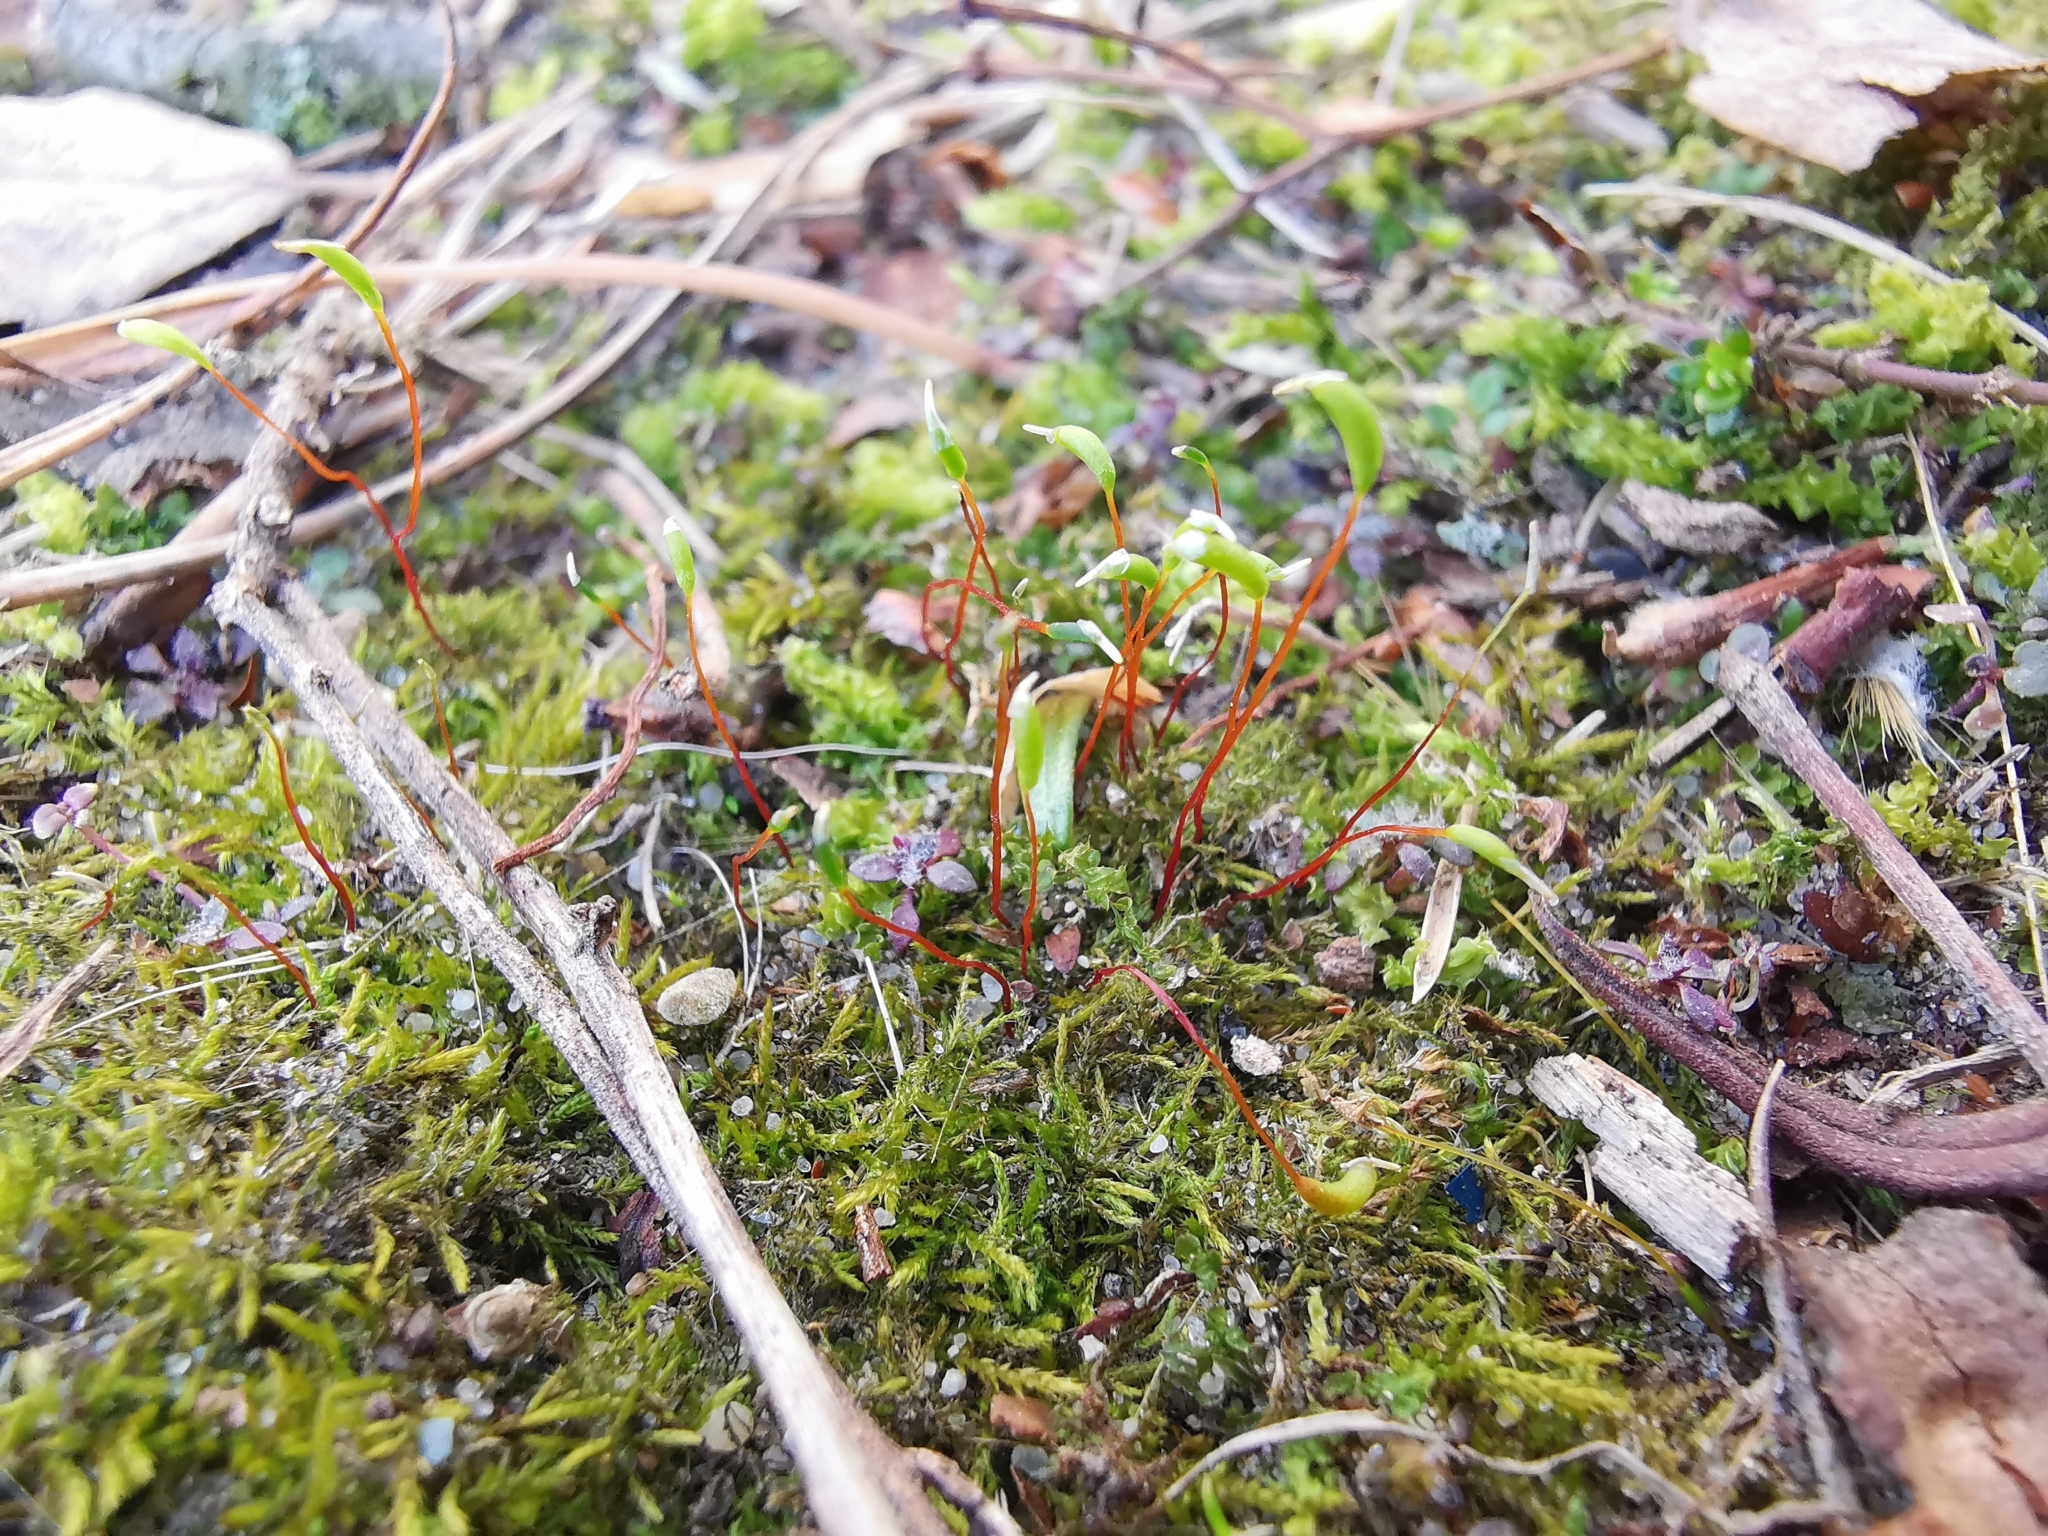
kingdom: Plantae
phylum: Bryophyta
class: Bryopsida
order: Hypnales
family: Amblystegiaceae
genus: Amblystegium
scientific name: Amblystegium serpens
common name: Jurkatzka's feather moss
